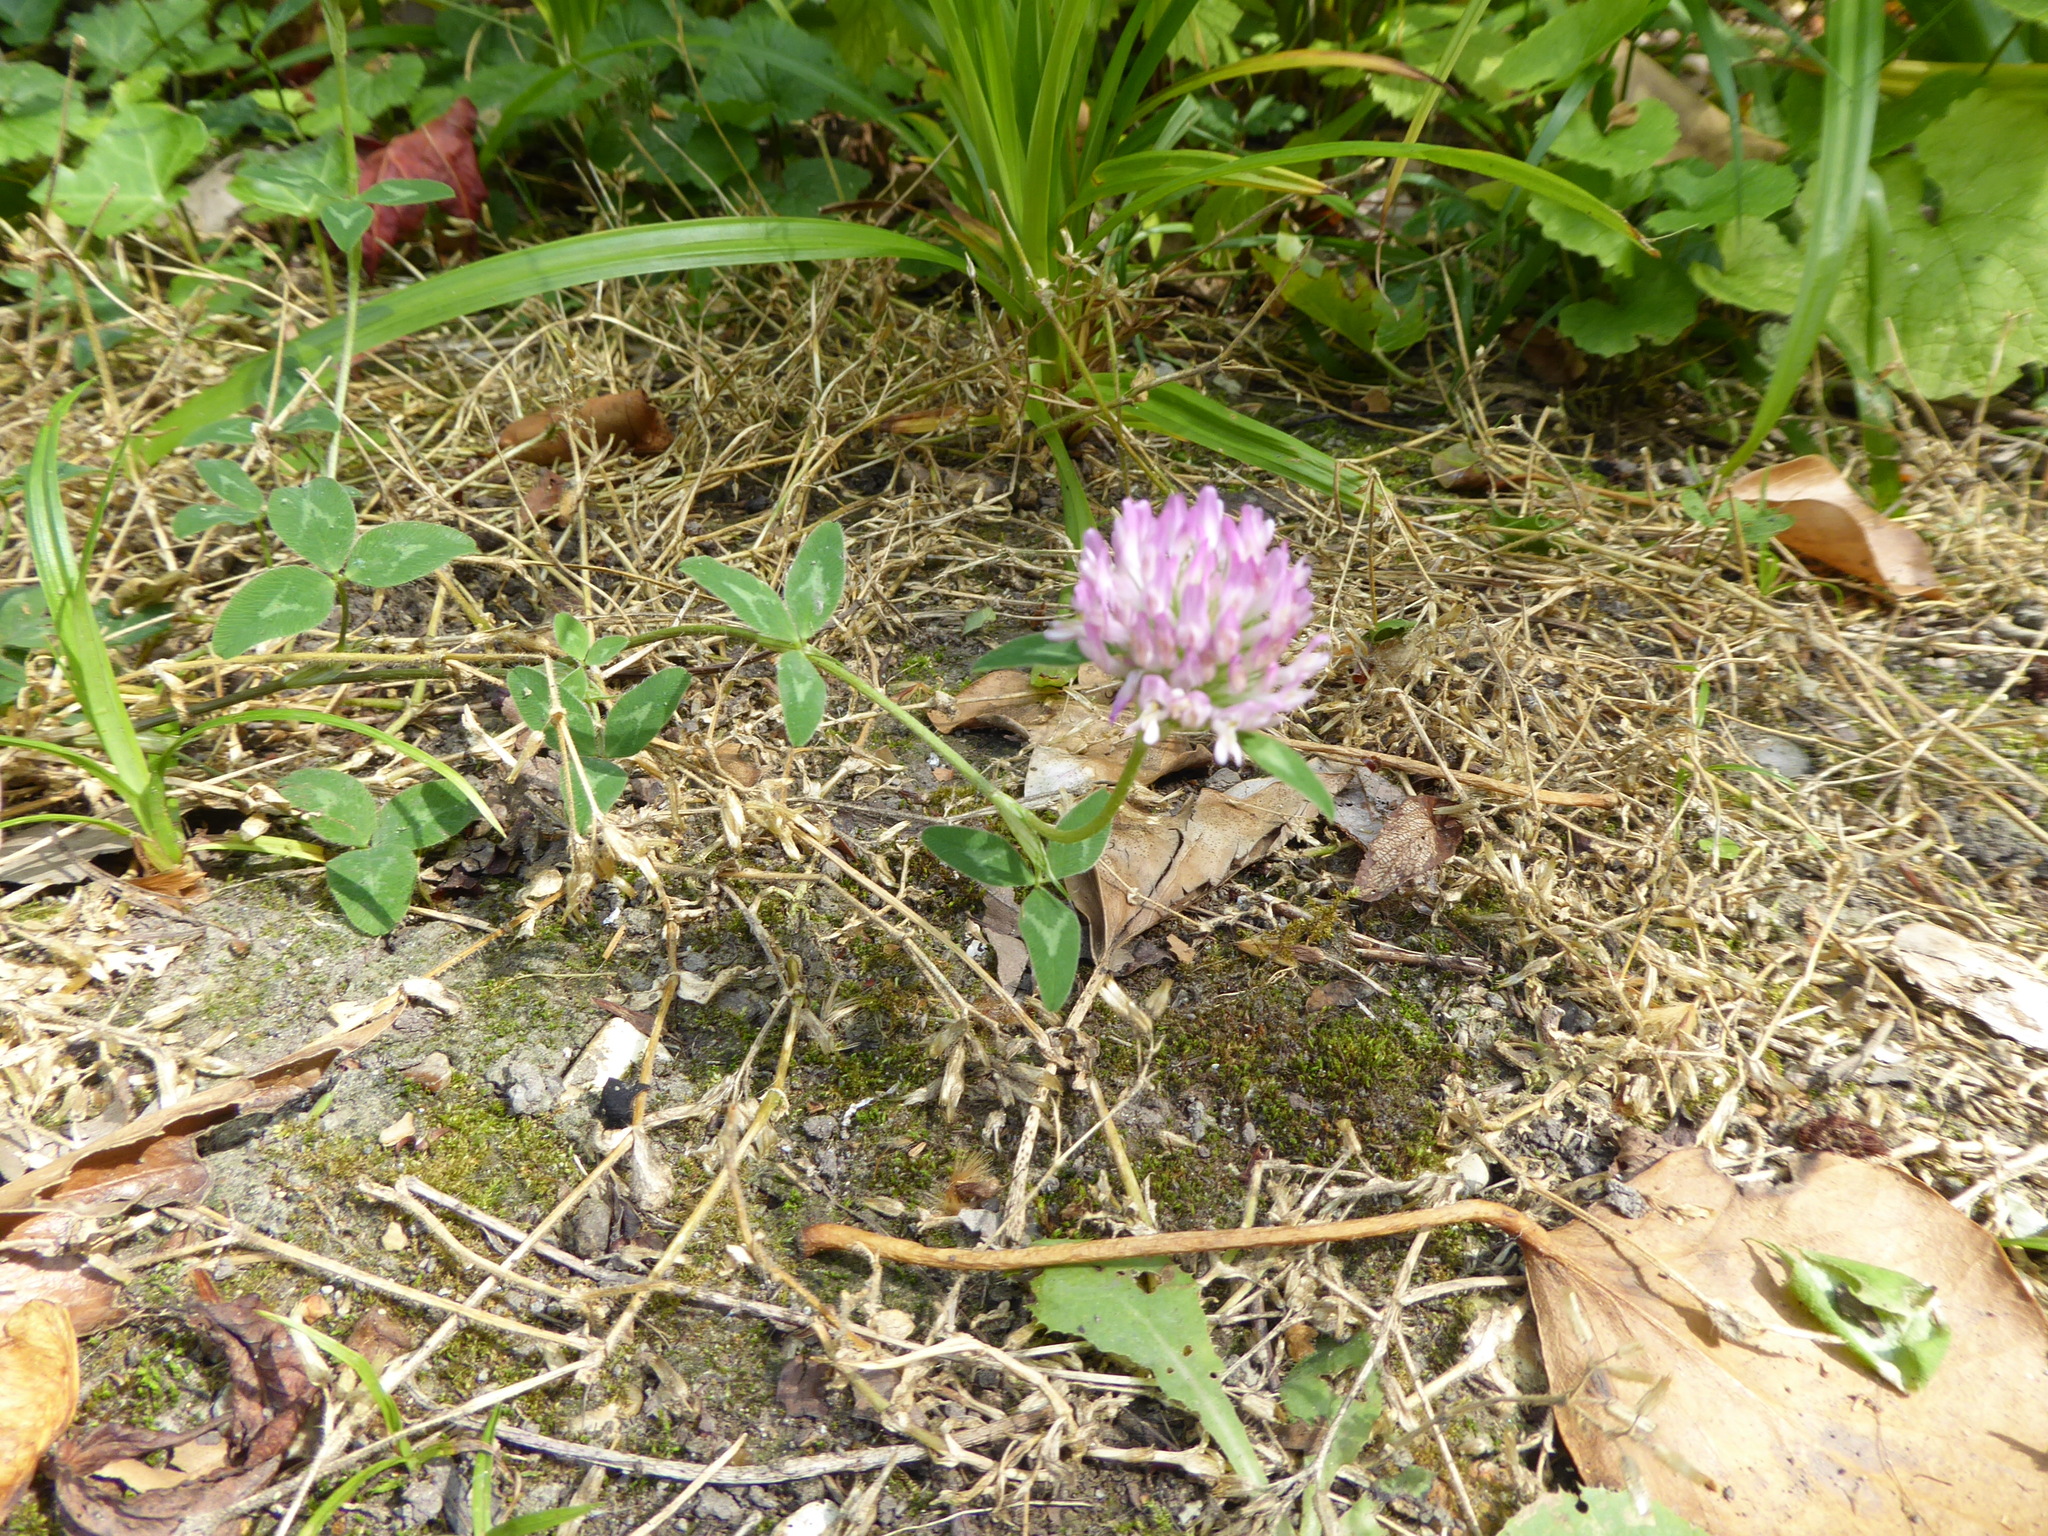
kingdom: Plantae
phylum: Tracheophyta
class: Magnoliopsida
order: Fabales
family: Fabaceae
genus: Trifolium
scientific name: Trifolium pratense
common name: Red clover
